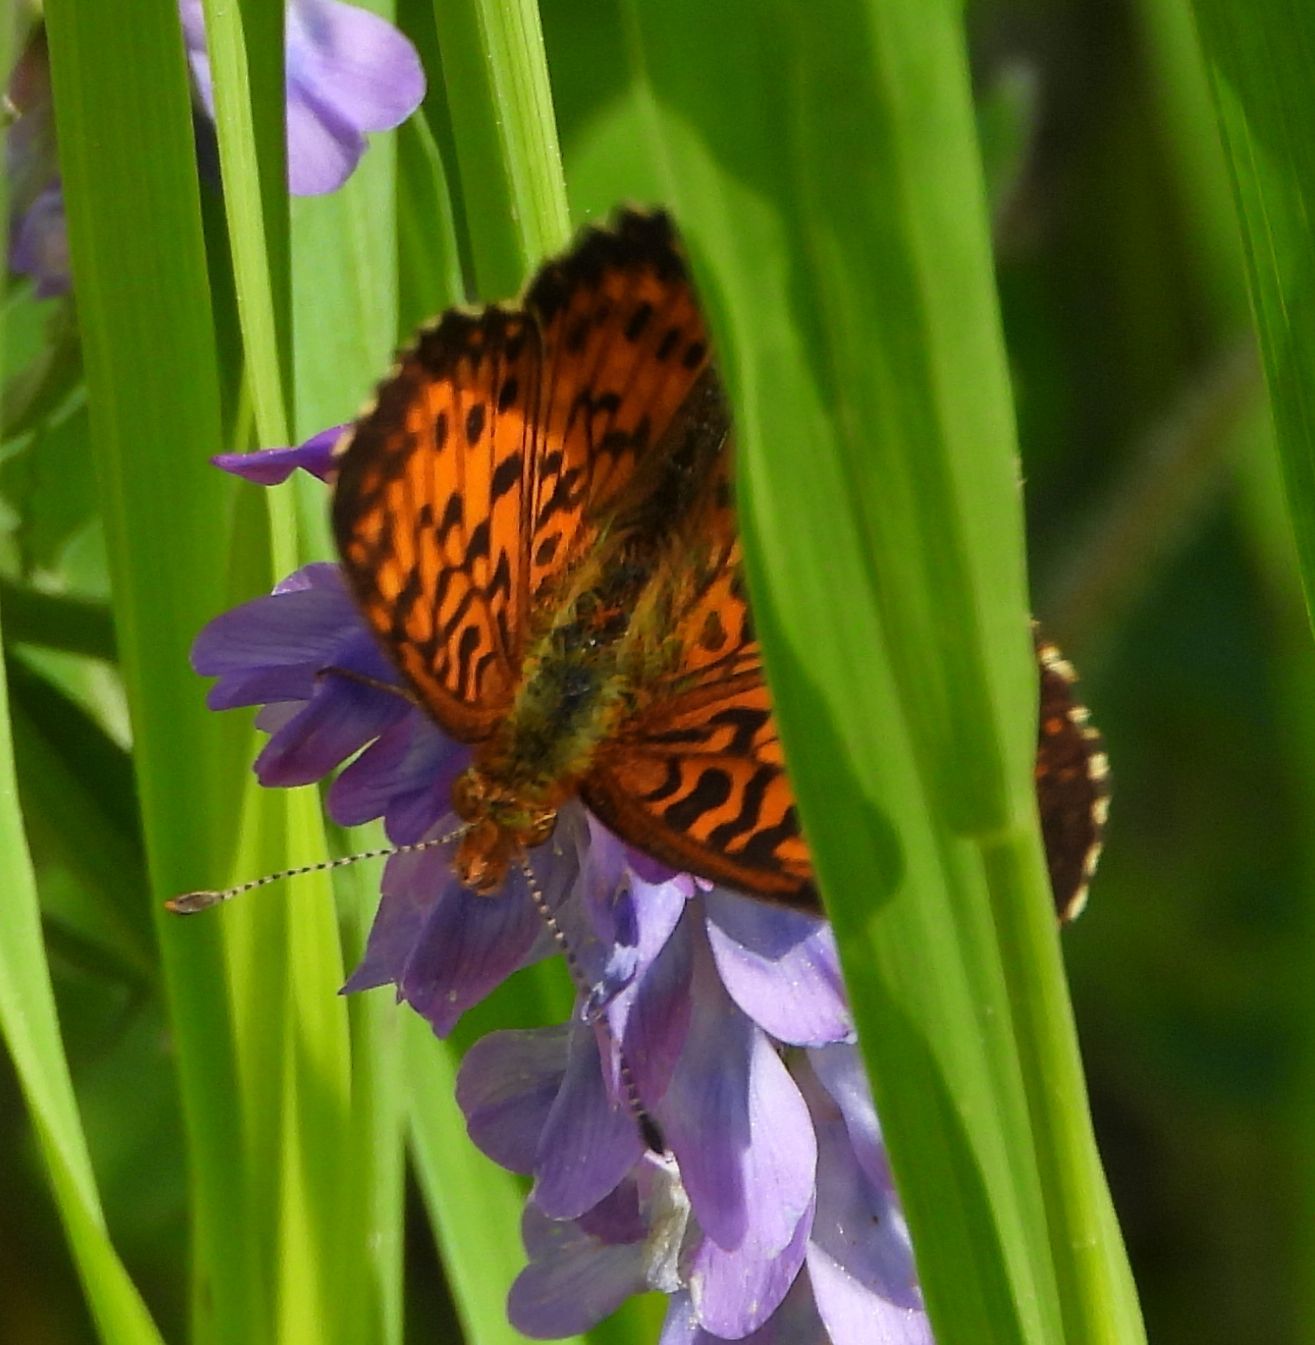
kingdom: Animalia
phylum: Arthropoda
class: Insecta
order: Lepidoptera
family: Nymphalidae
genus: Boloria
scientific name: Boloria
